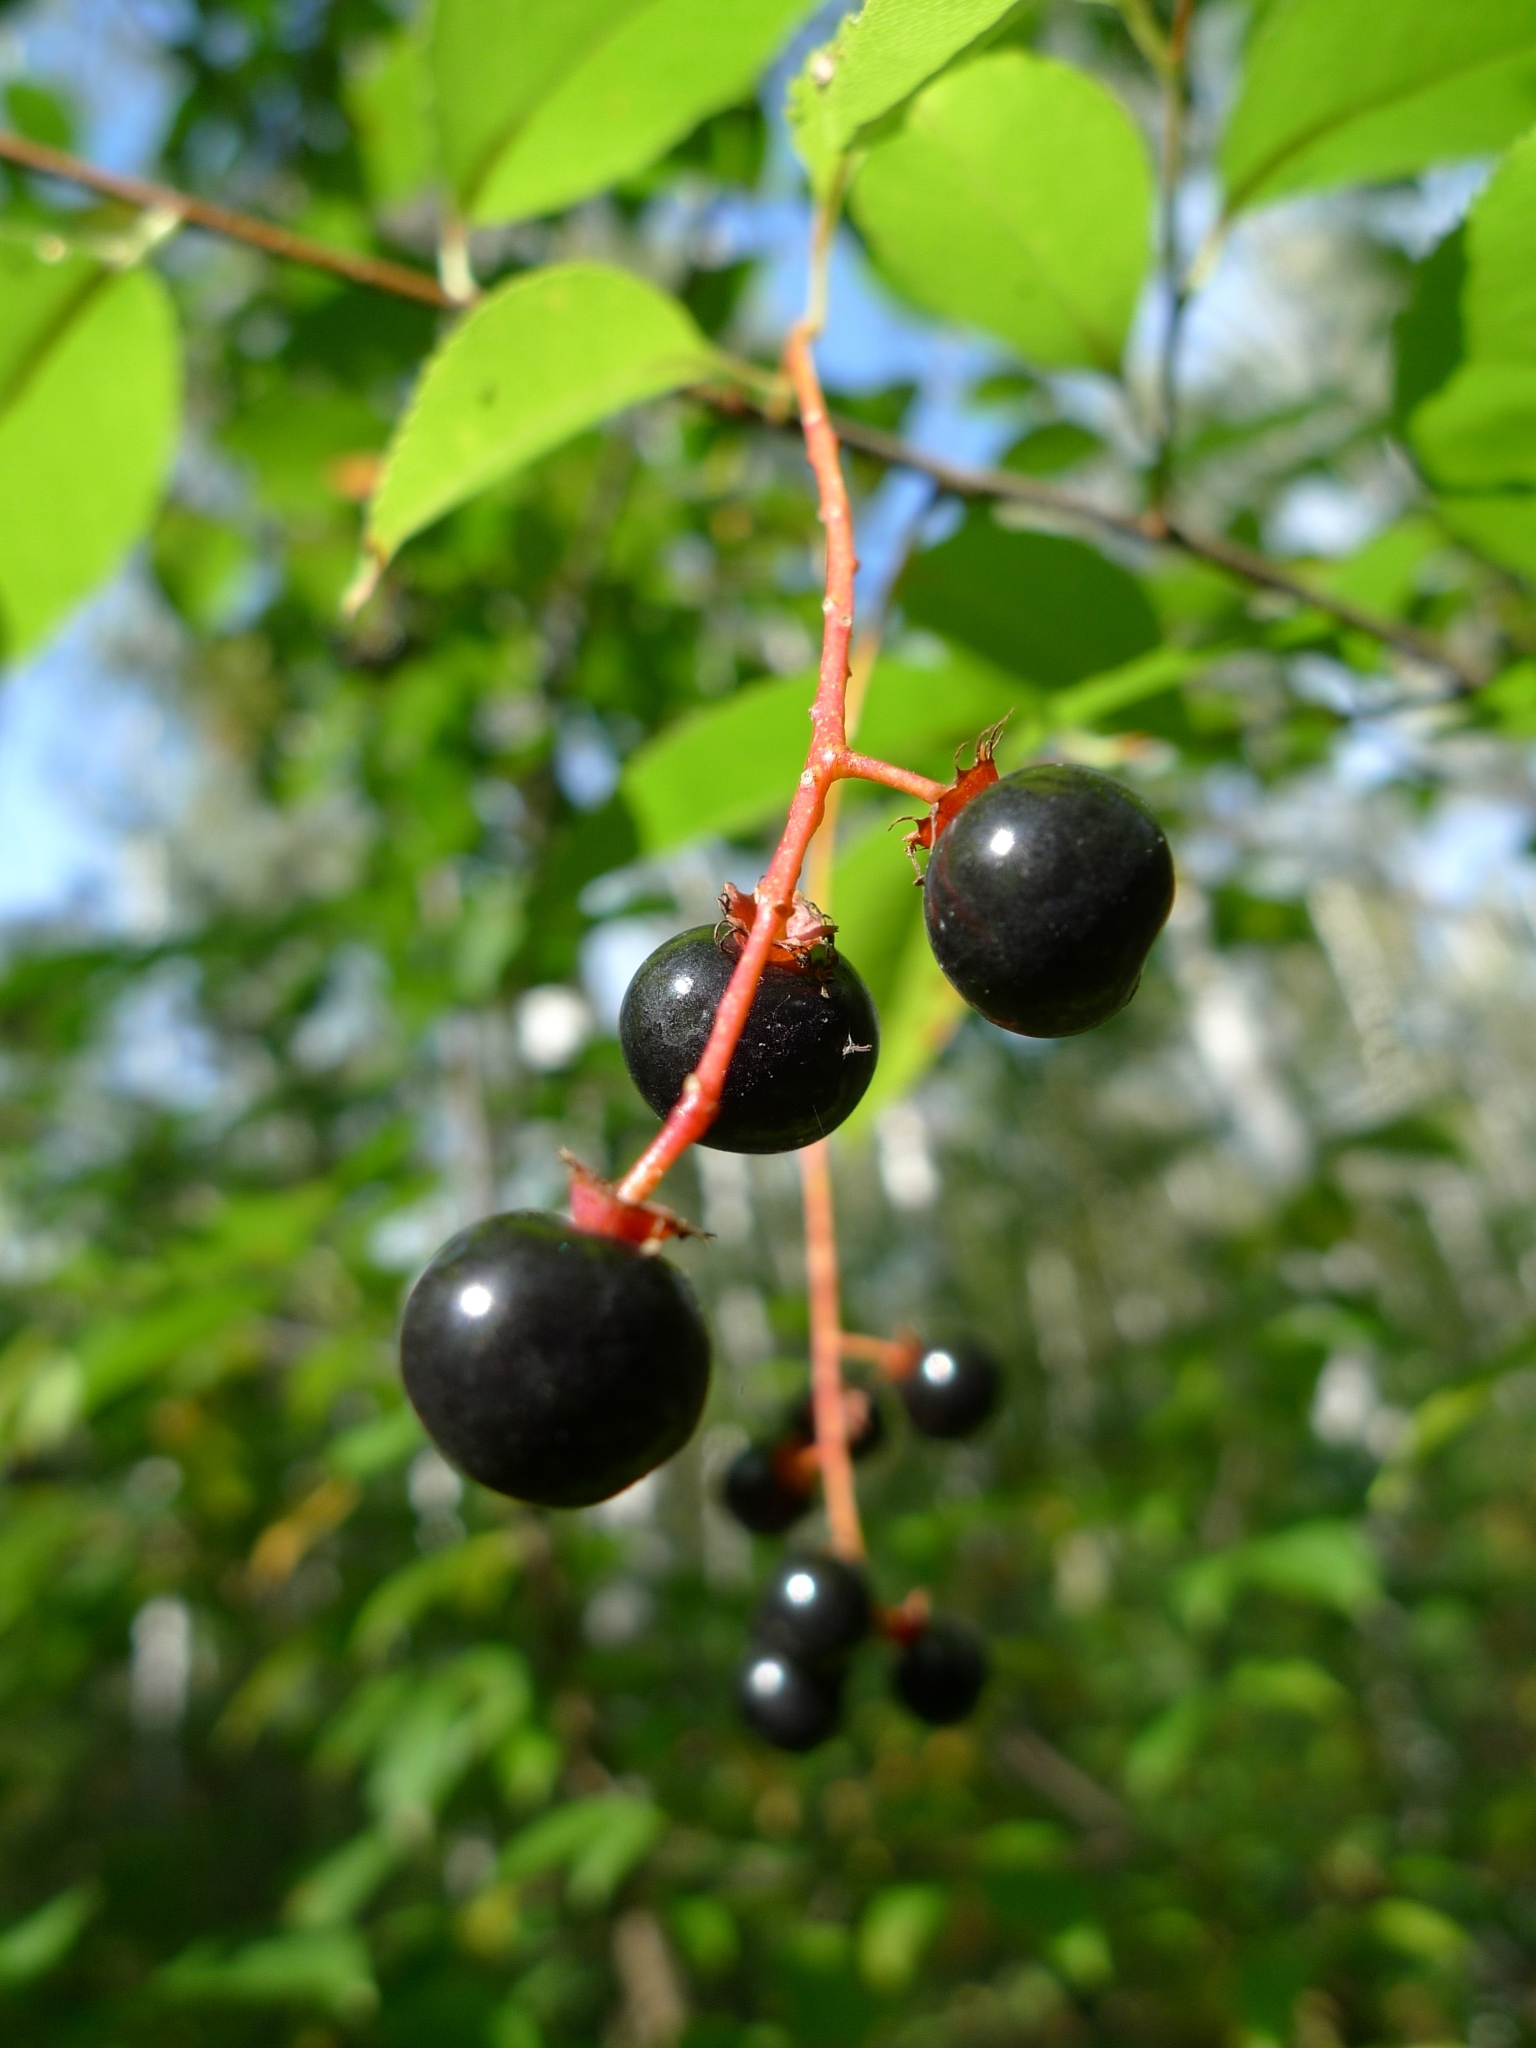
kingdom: Plantae
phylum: Tracheophyta
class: Magnoliopsida
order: Rosales
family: Rosaceae
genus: Prunus
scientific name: Prunus serotina
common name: Black cherry
